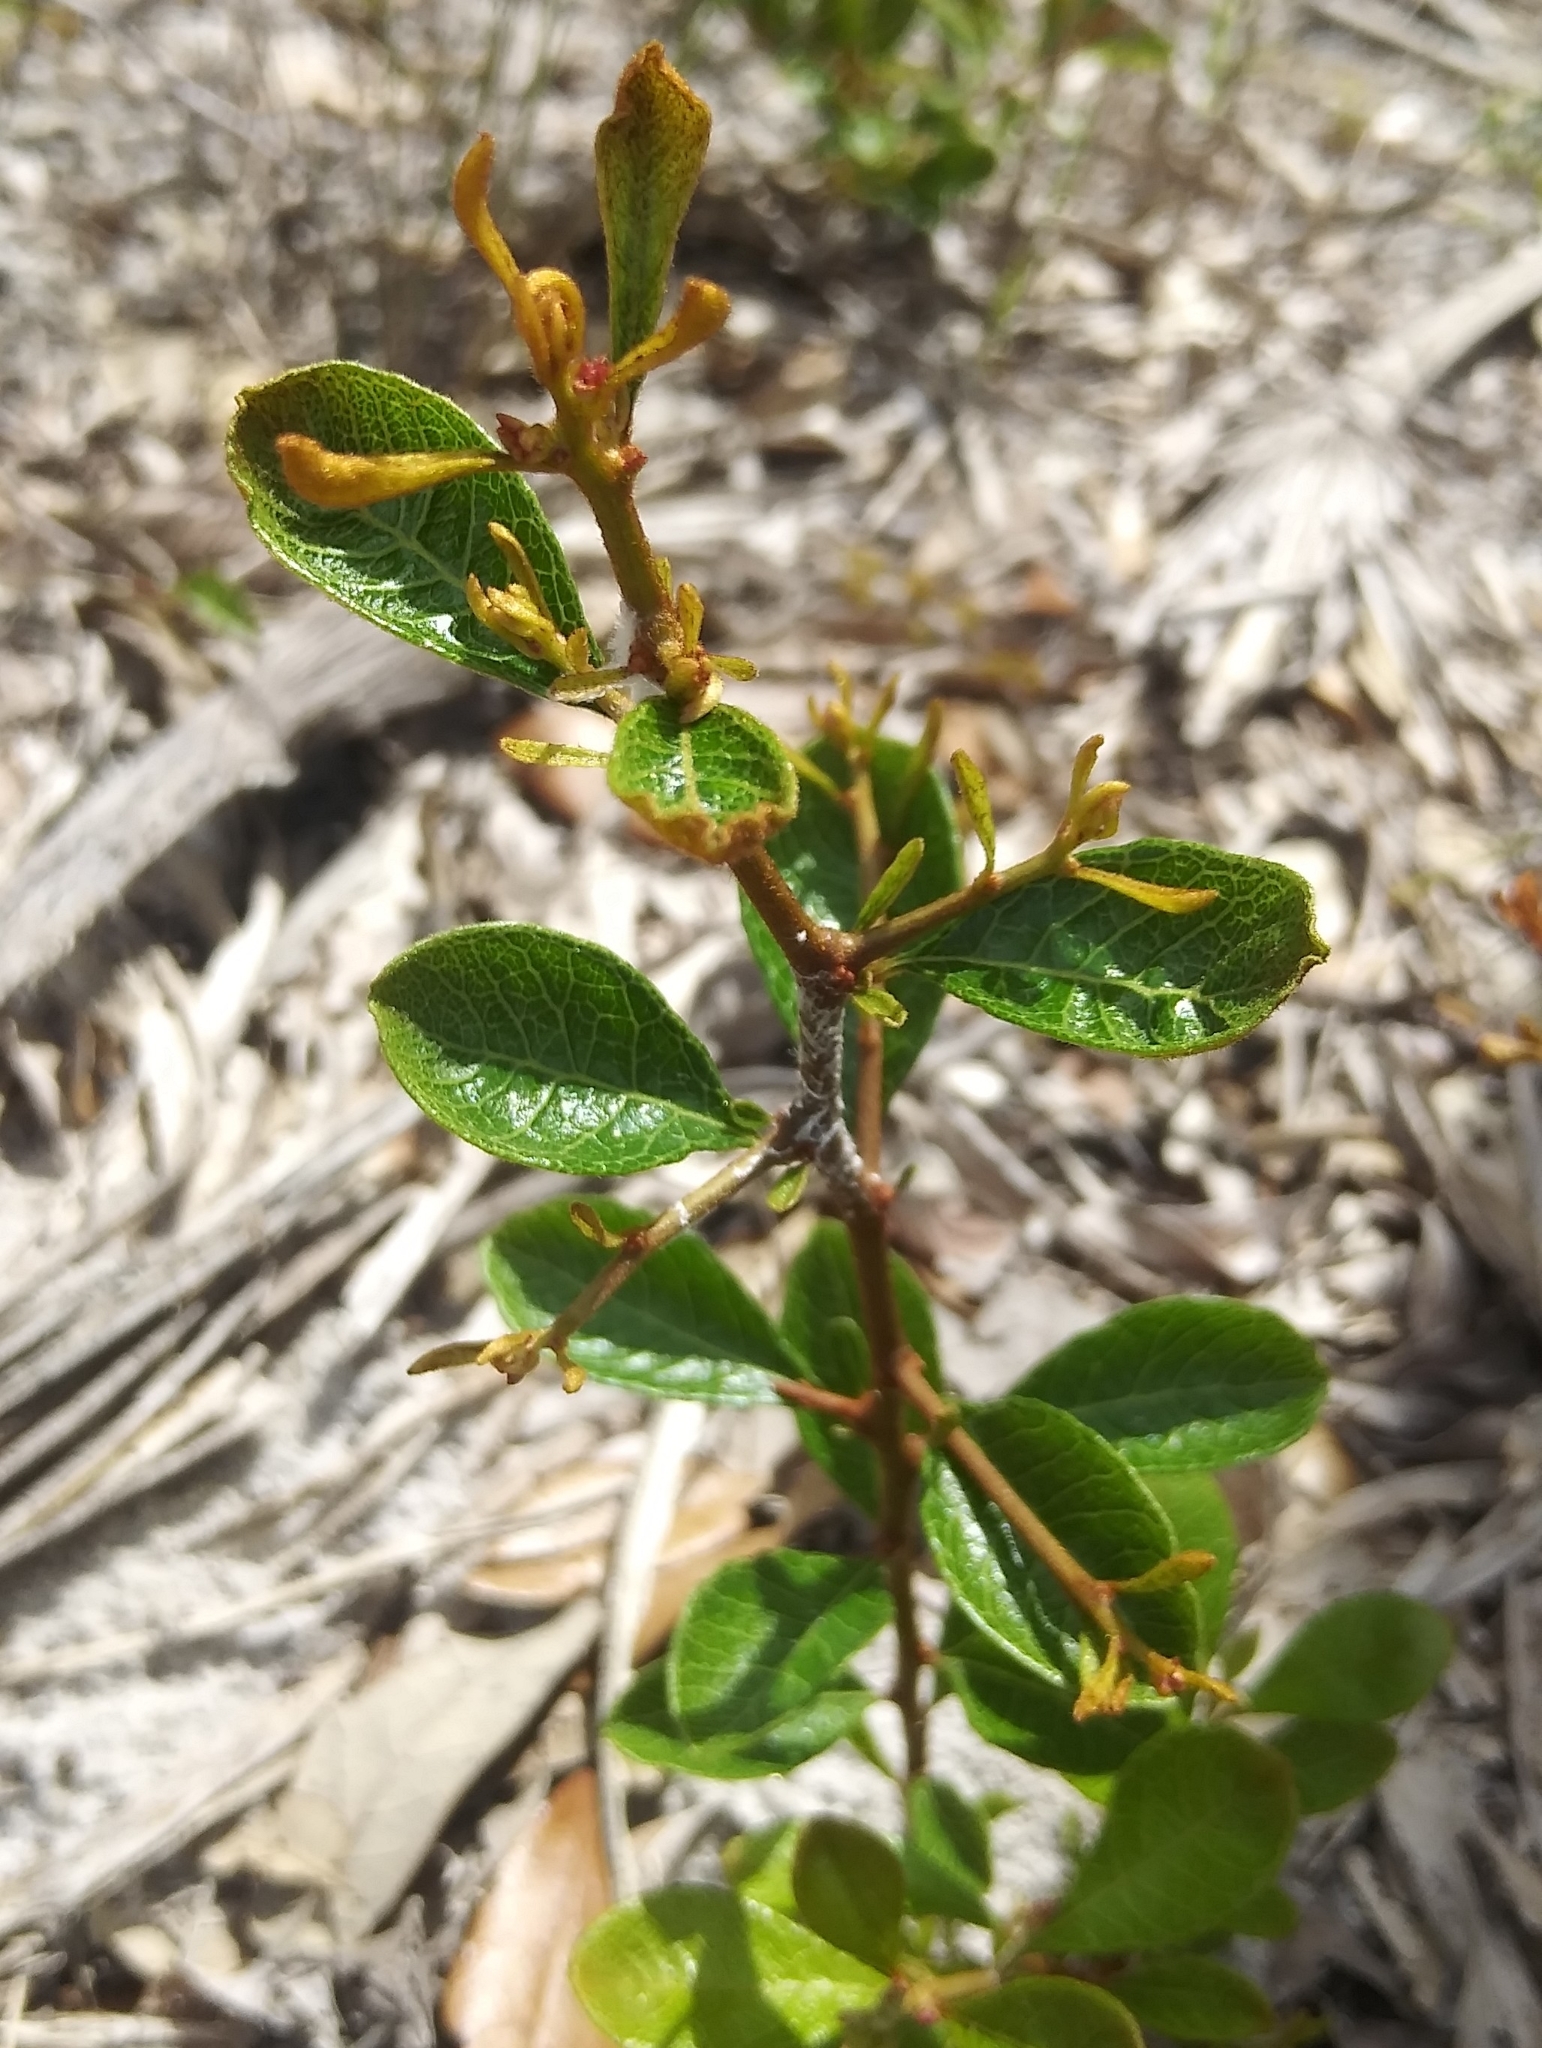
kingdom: Plantae
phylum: Tracheophyta
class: Magnoliopsida
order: Ericales
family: Ericaceae
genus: Lyonia
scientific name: Lyonia fruticosa
